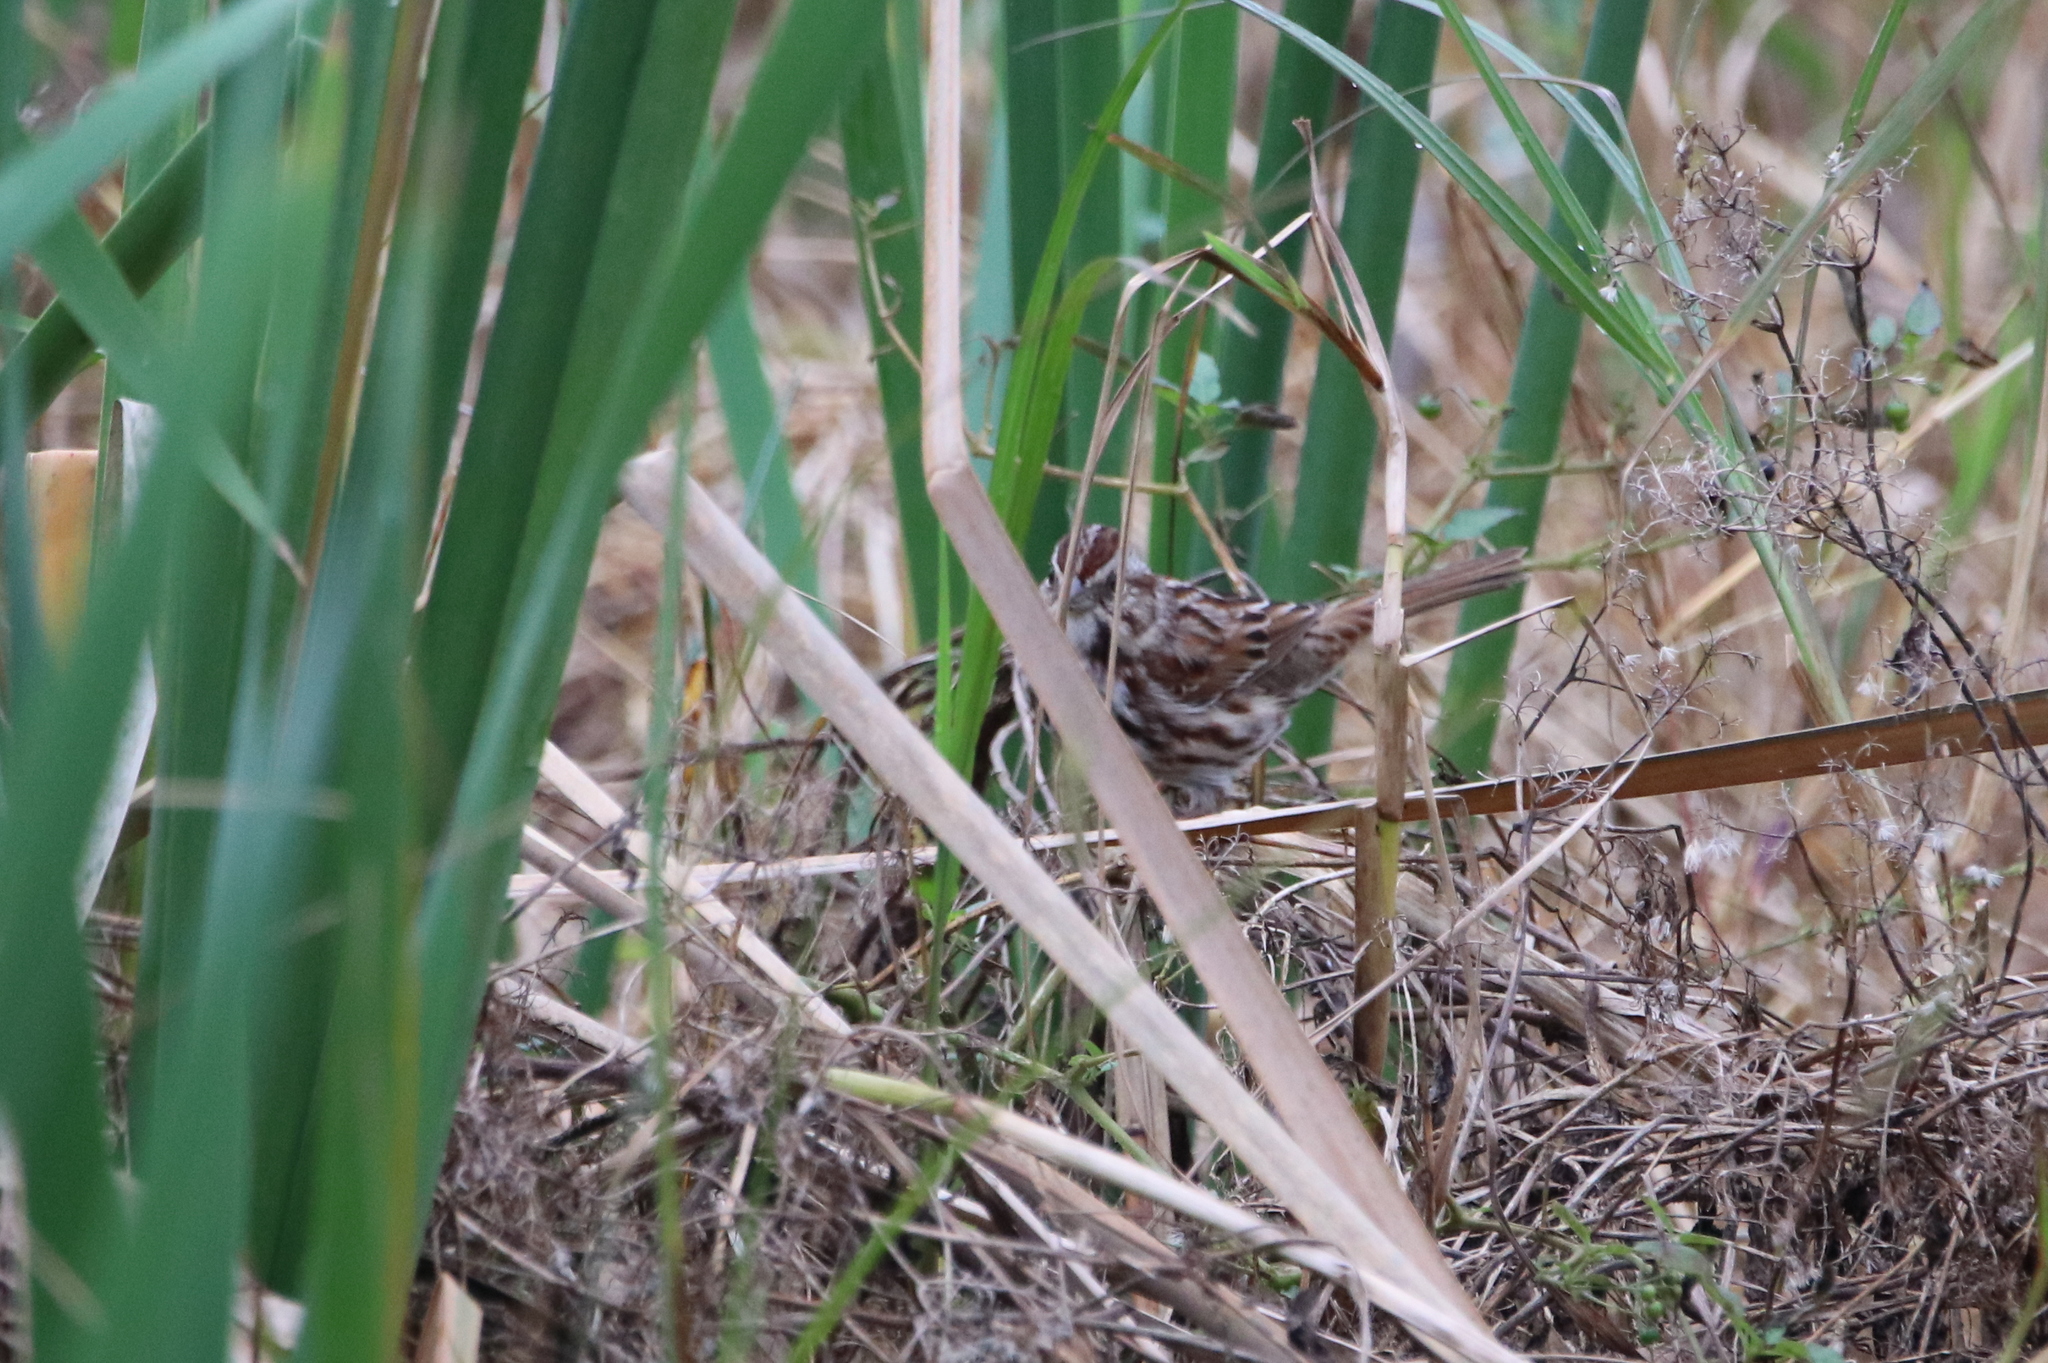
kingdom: Animalia
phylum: Chordata
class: Aves
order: Passeriformes
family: Passerellidae
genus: Melospiza
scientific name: Melospiza melodia
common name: Song sparrow
